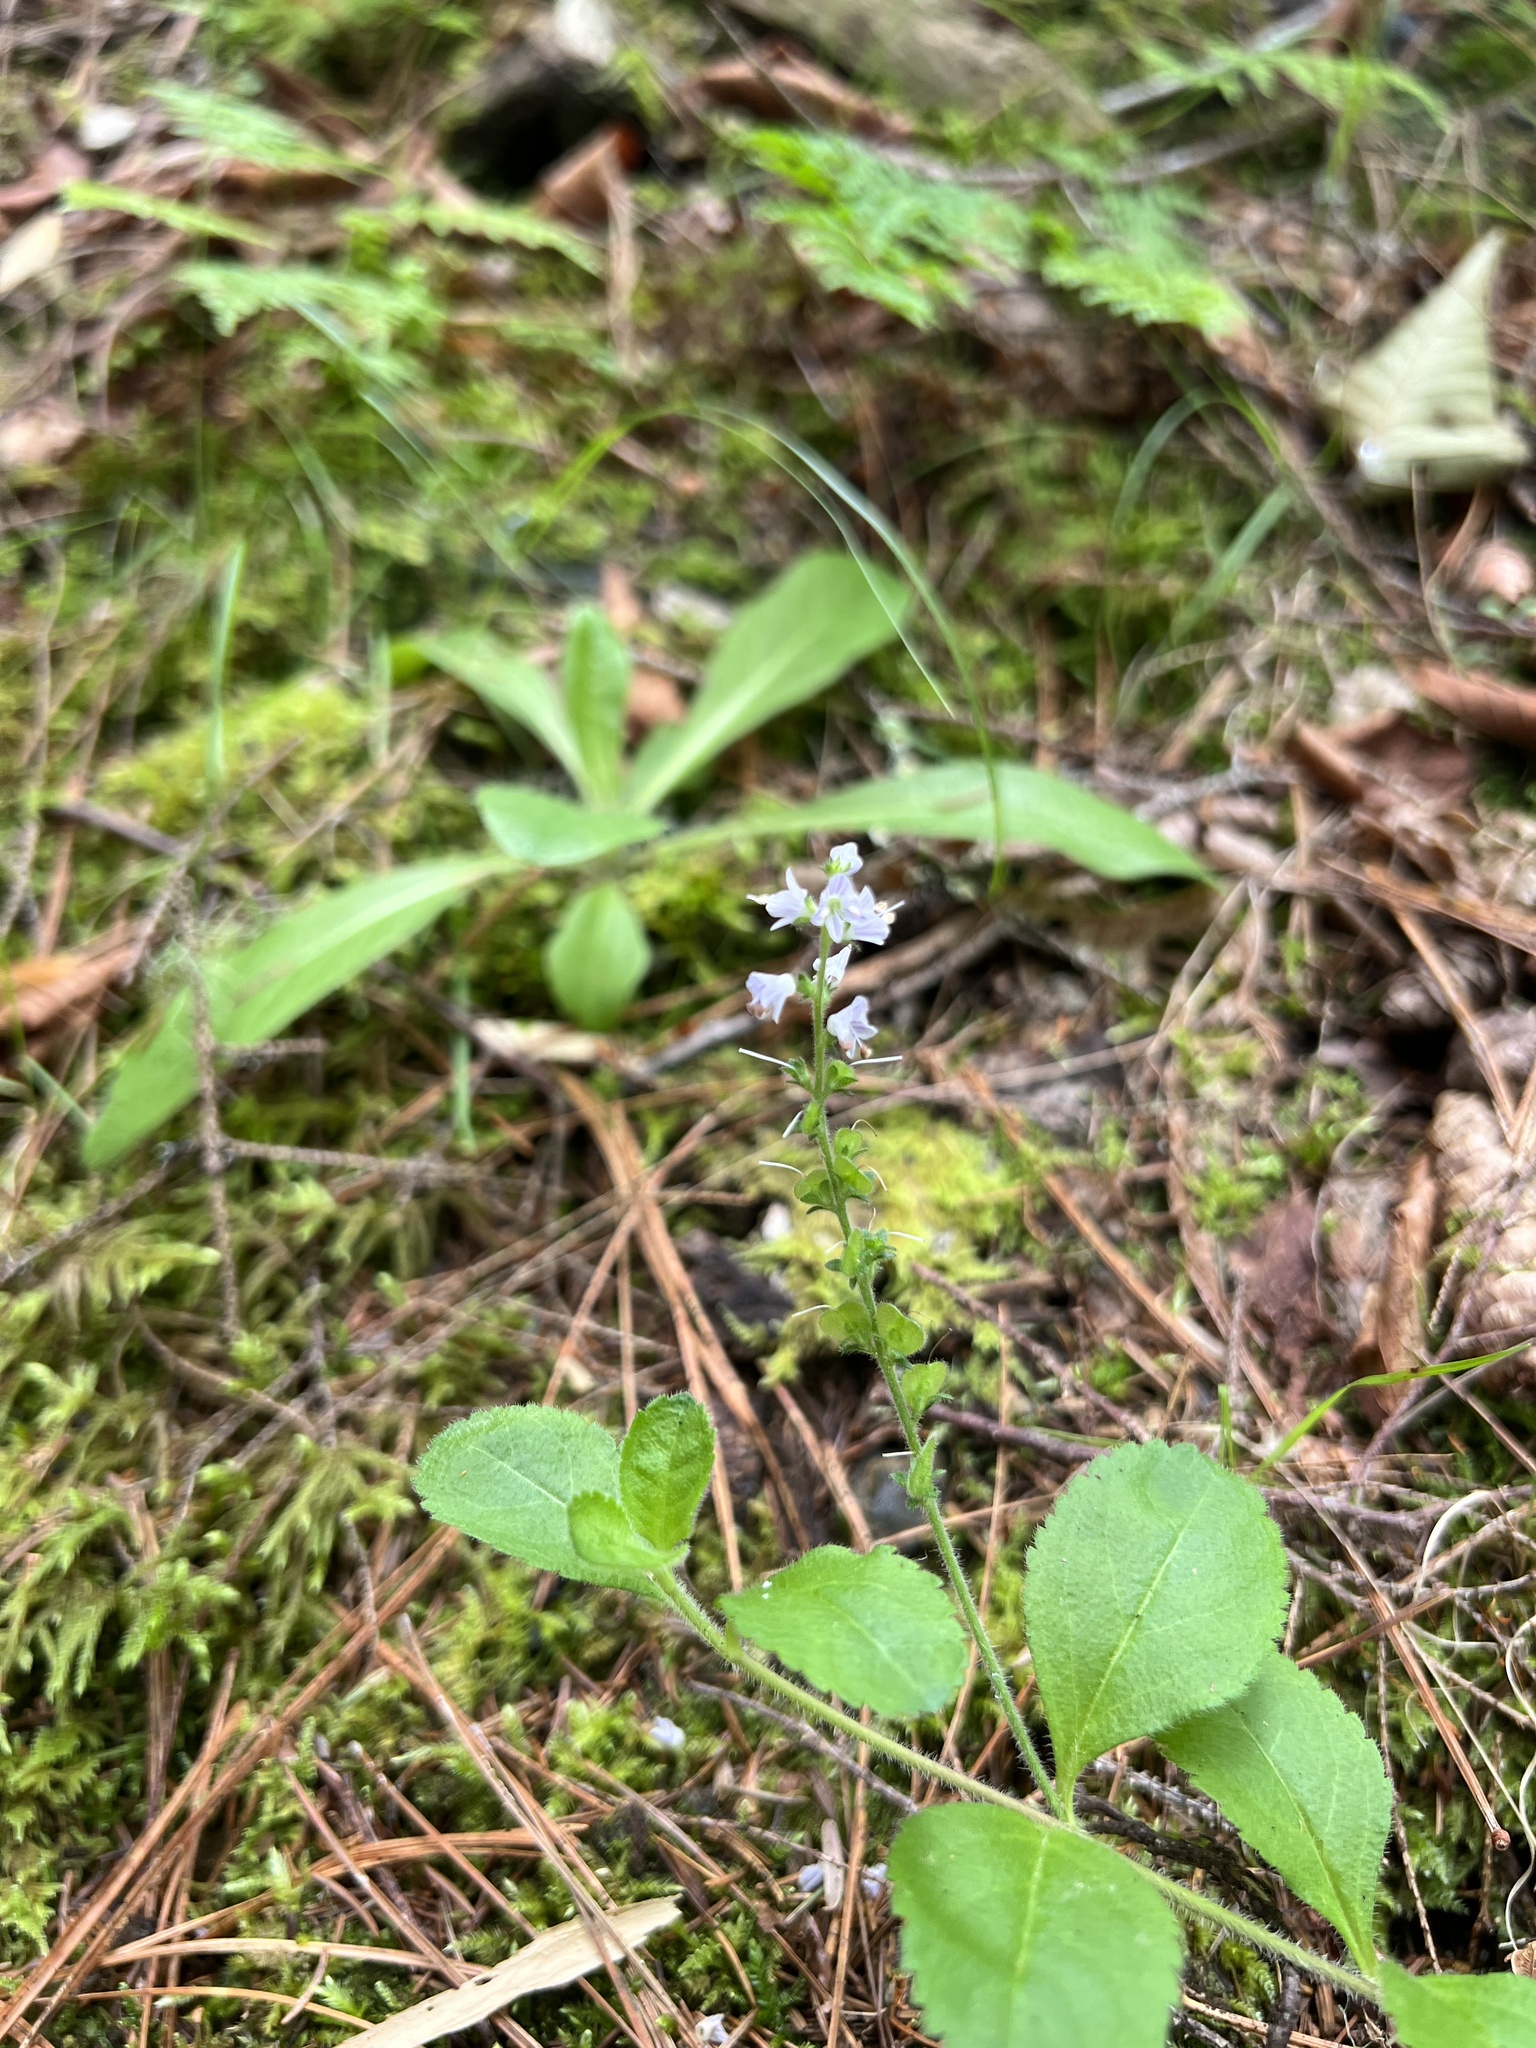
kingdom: Plantae
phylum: Tracheophyta
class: Magnoliopsida
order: Lamiales
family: Plantaginaceae
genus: Veronica
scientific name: Veronica officinalis
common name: Common speedwell
